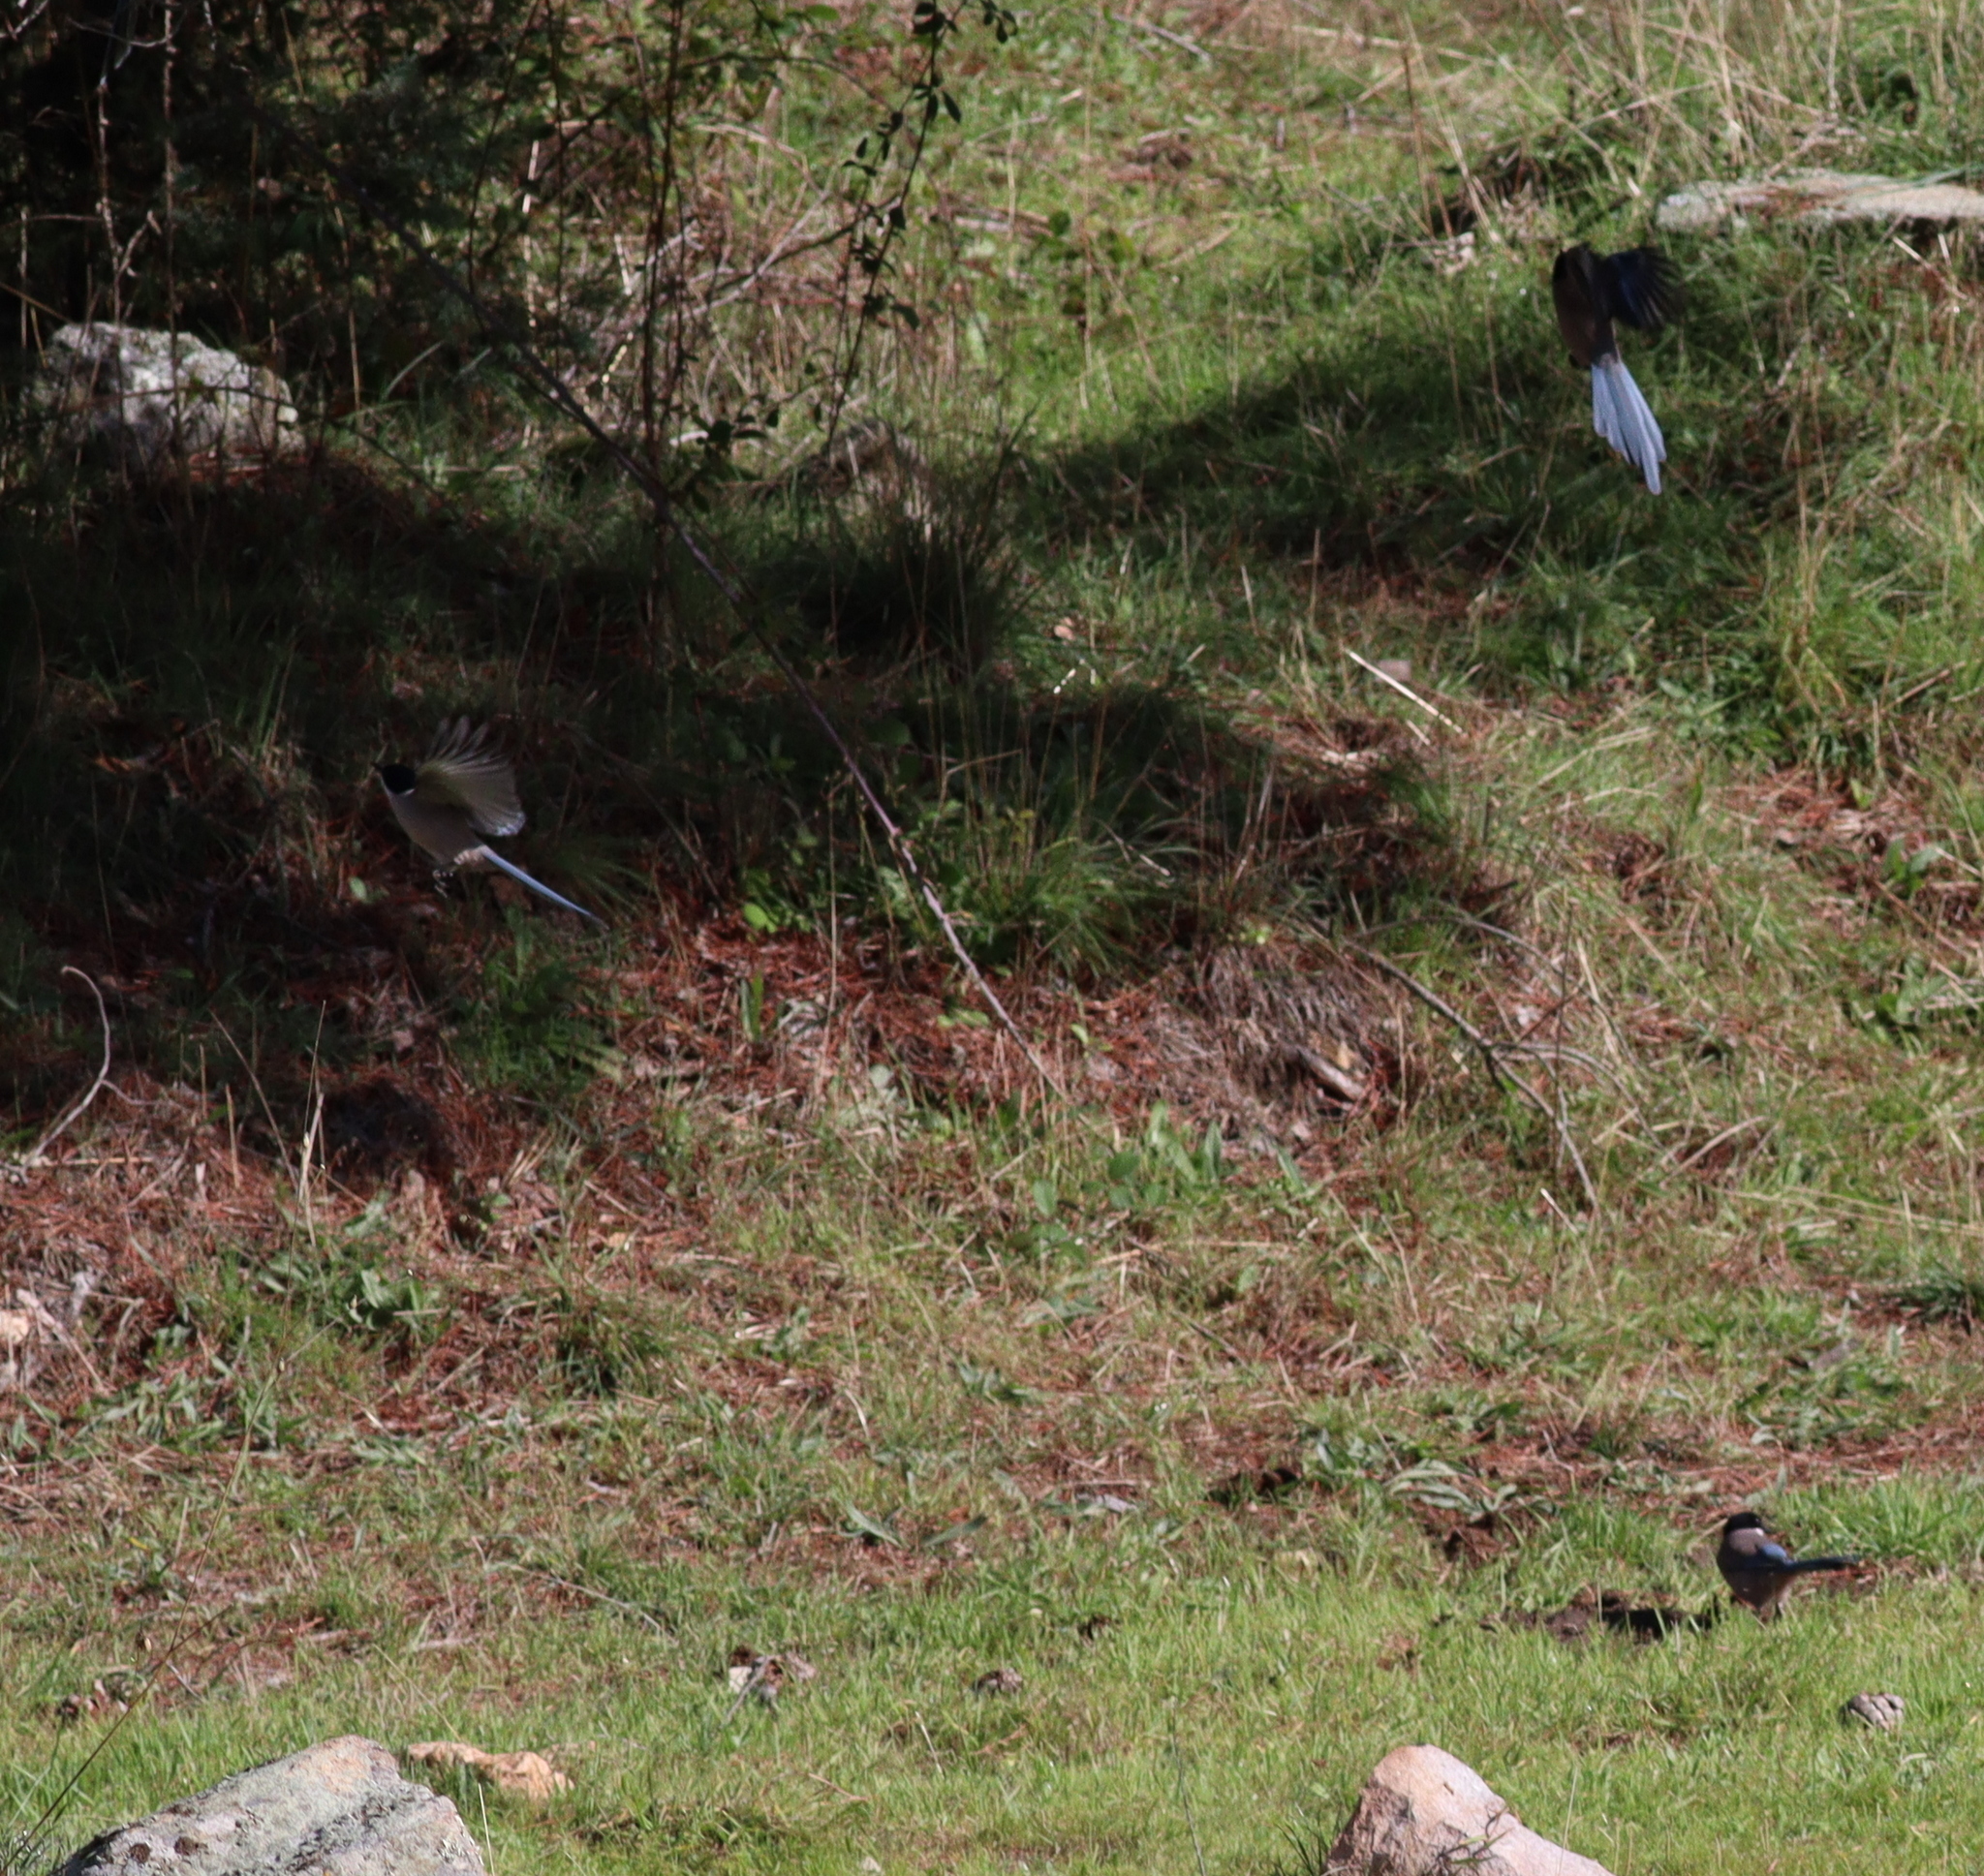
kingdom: Animalia
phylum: Chordata
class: Aves
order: Passeriformes
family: Corvidae
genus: Cyanopica
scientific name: Cyanopica cooki
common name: Iberian magpie
